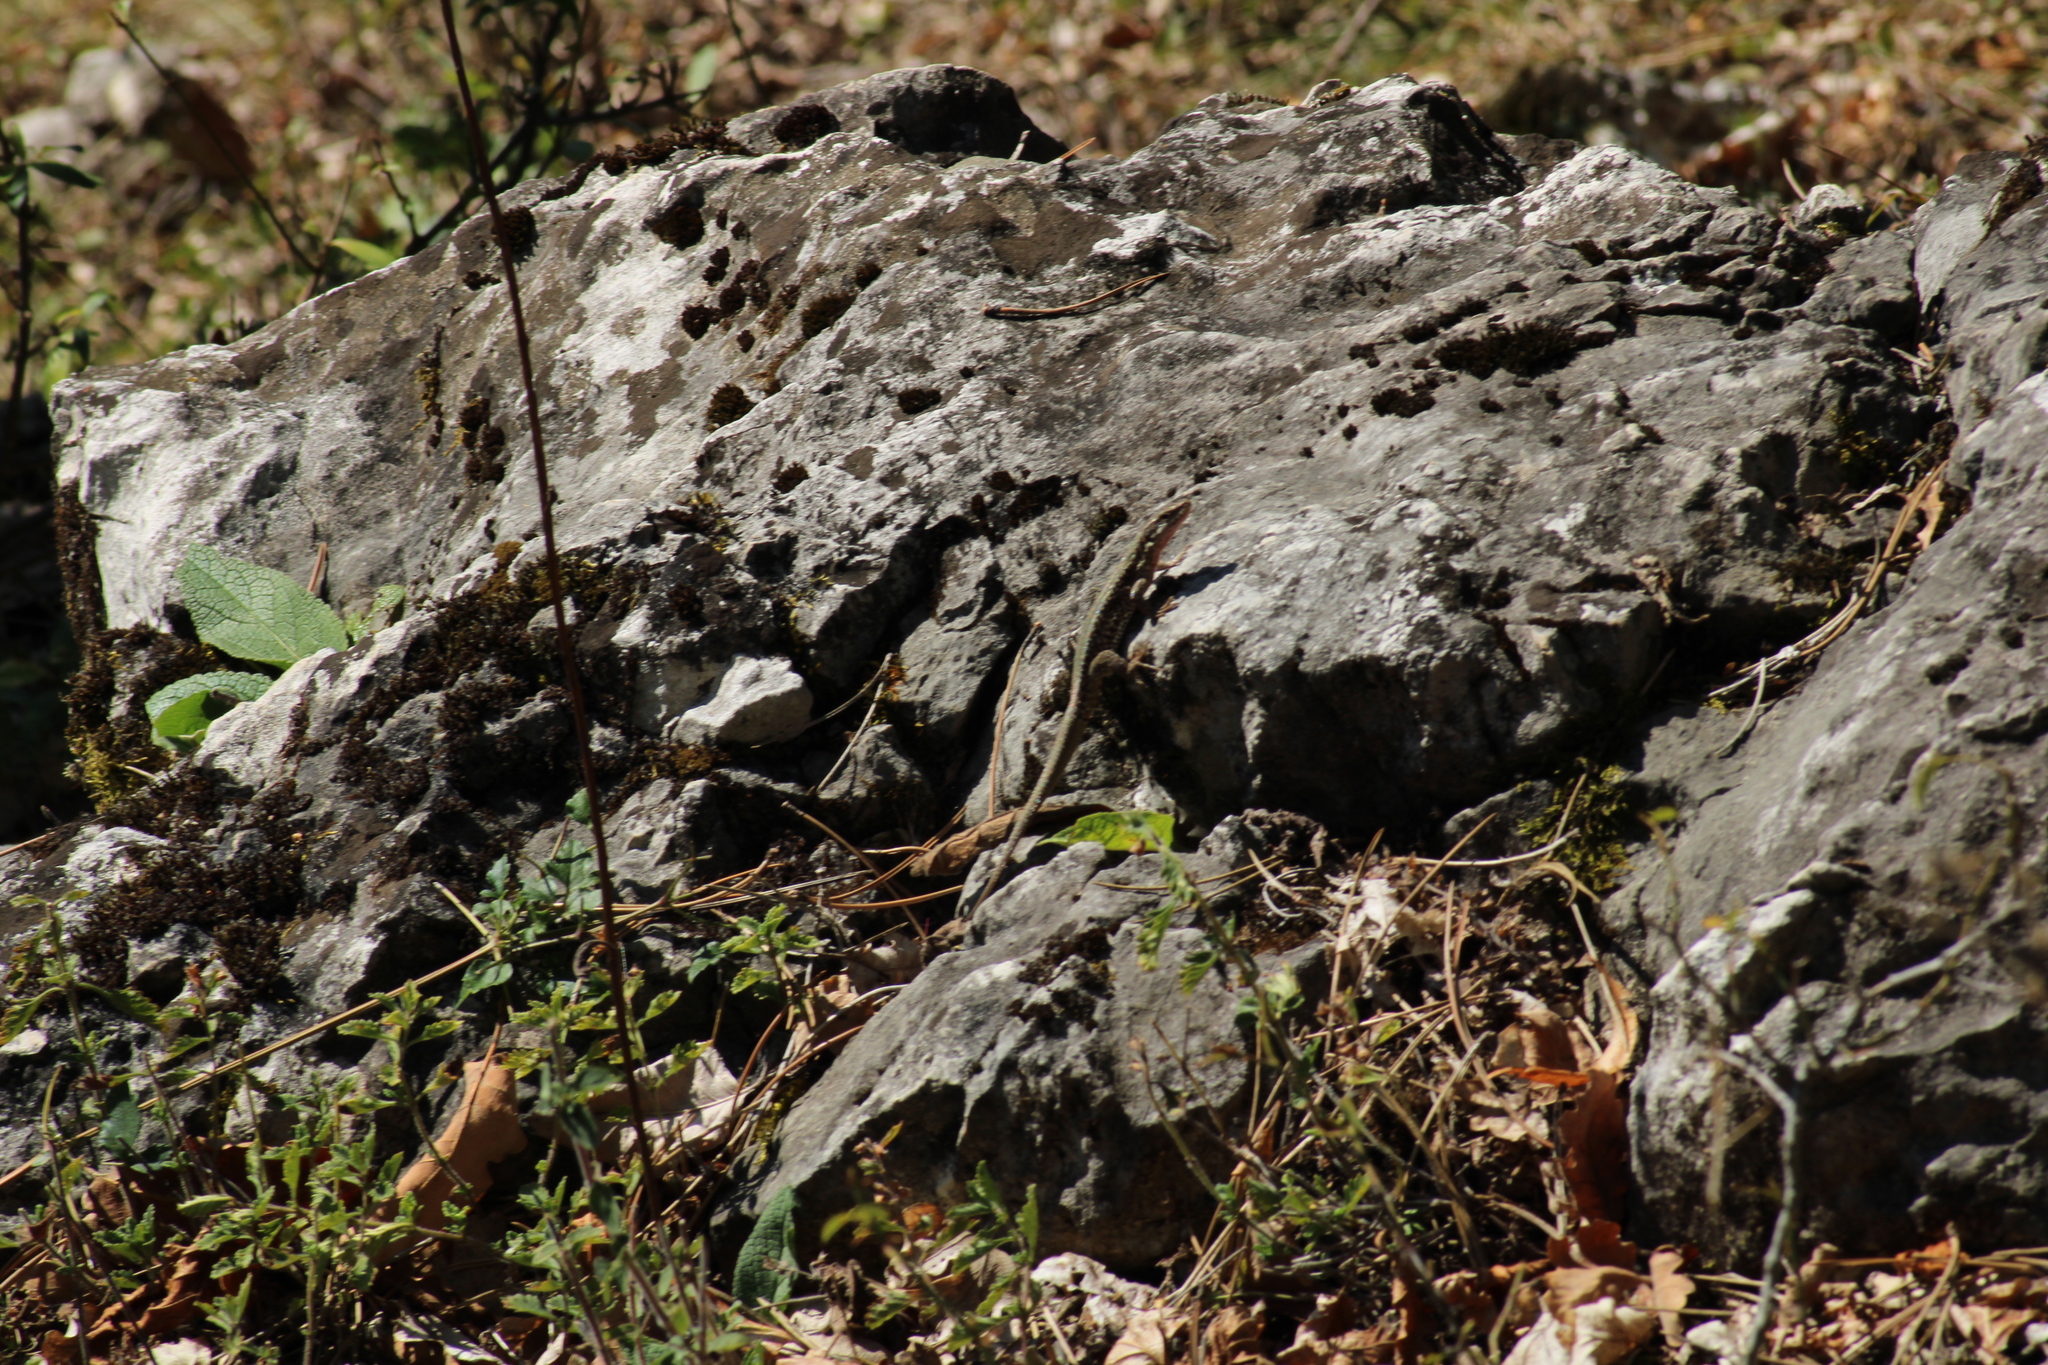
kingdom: Animalia
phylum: Chordata
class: Squamata
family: Lacertidae
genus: Podarcis
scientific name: Podarcis muralis
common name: Common wall lizard
